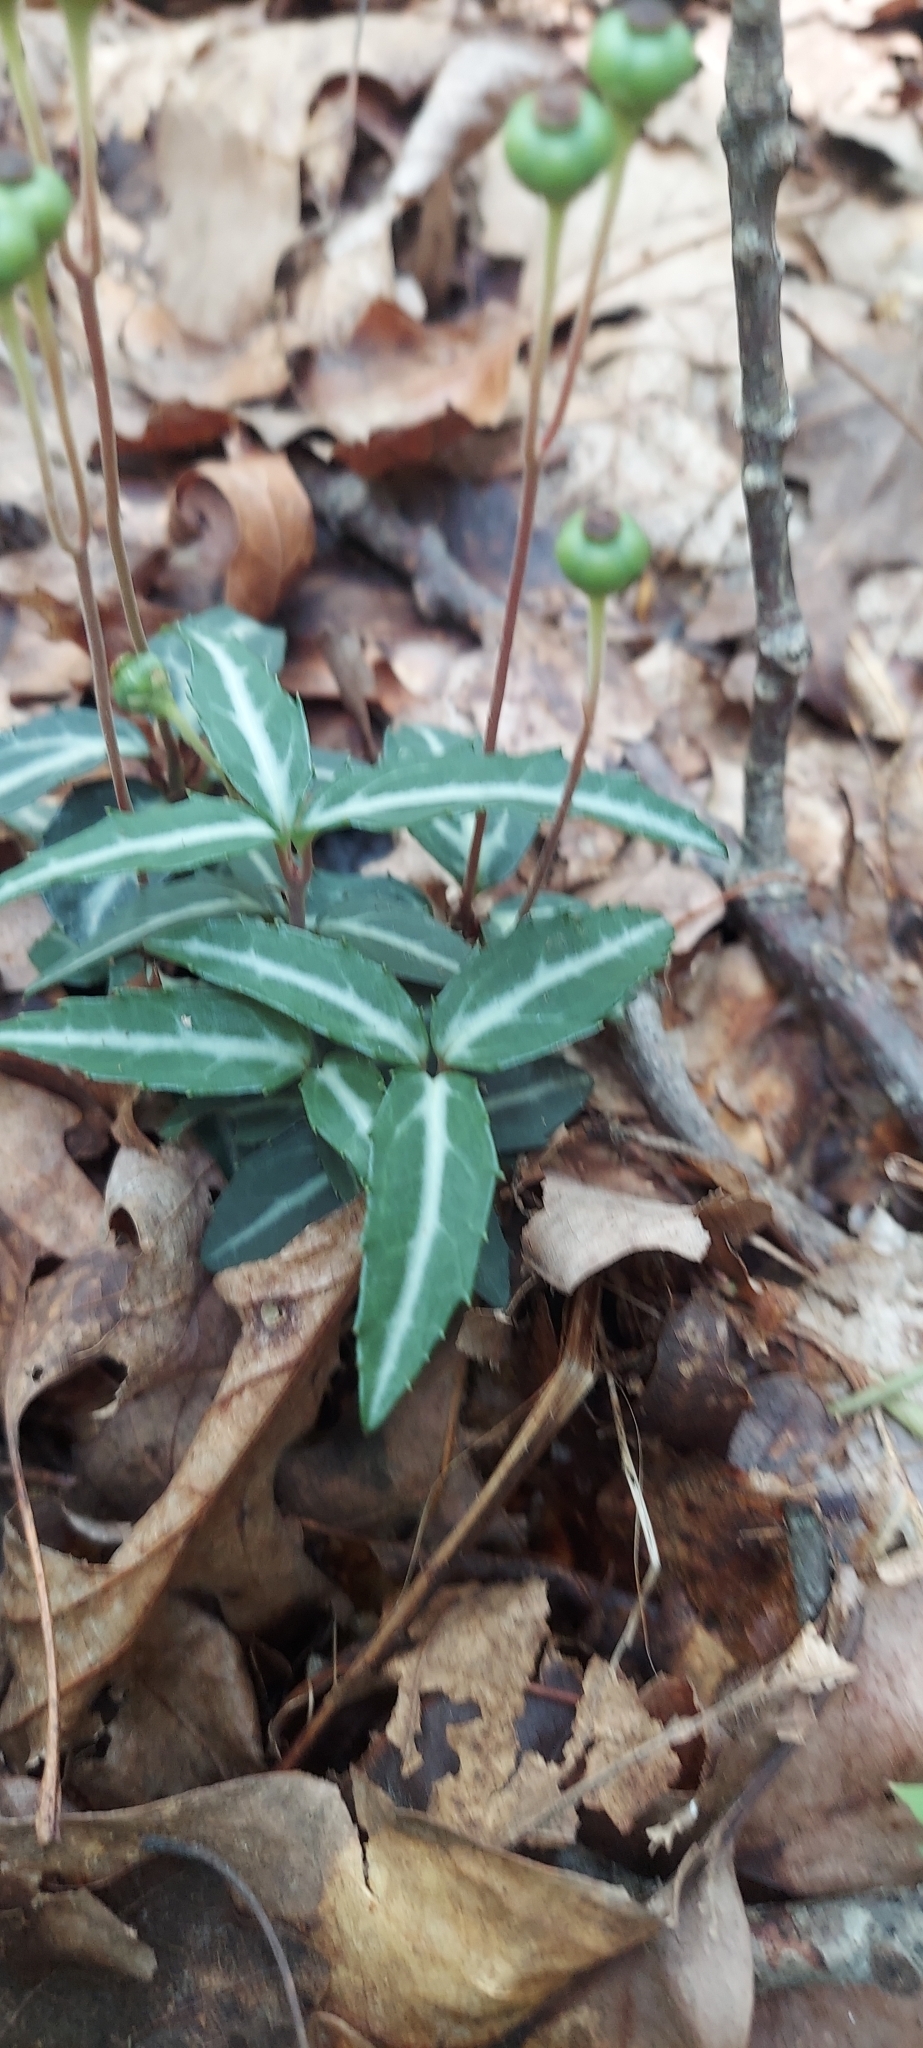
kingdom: Plantae
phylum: Tracheophyta
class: Magnoliopsida
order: Ericales
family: Ericaceae
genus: Chimaphila
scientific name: Chimaphila maculata
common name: Spotted pipsissewa
